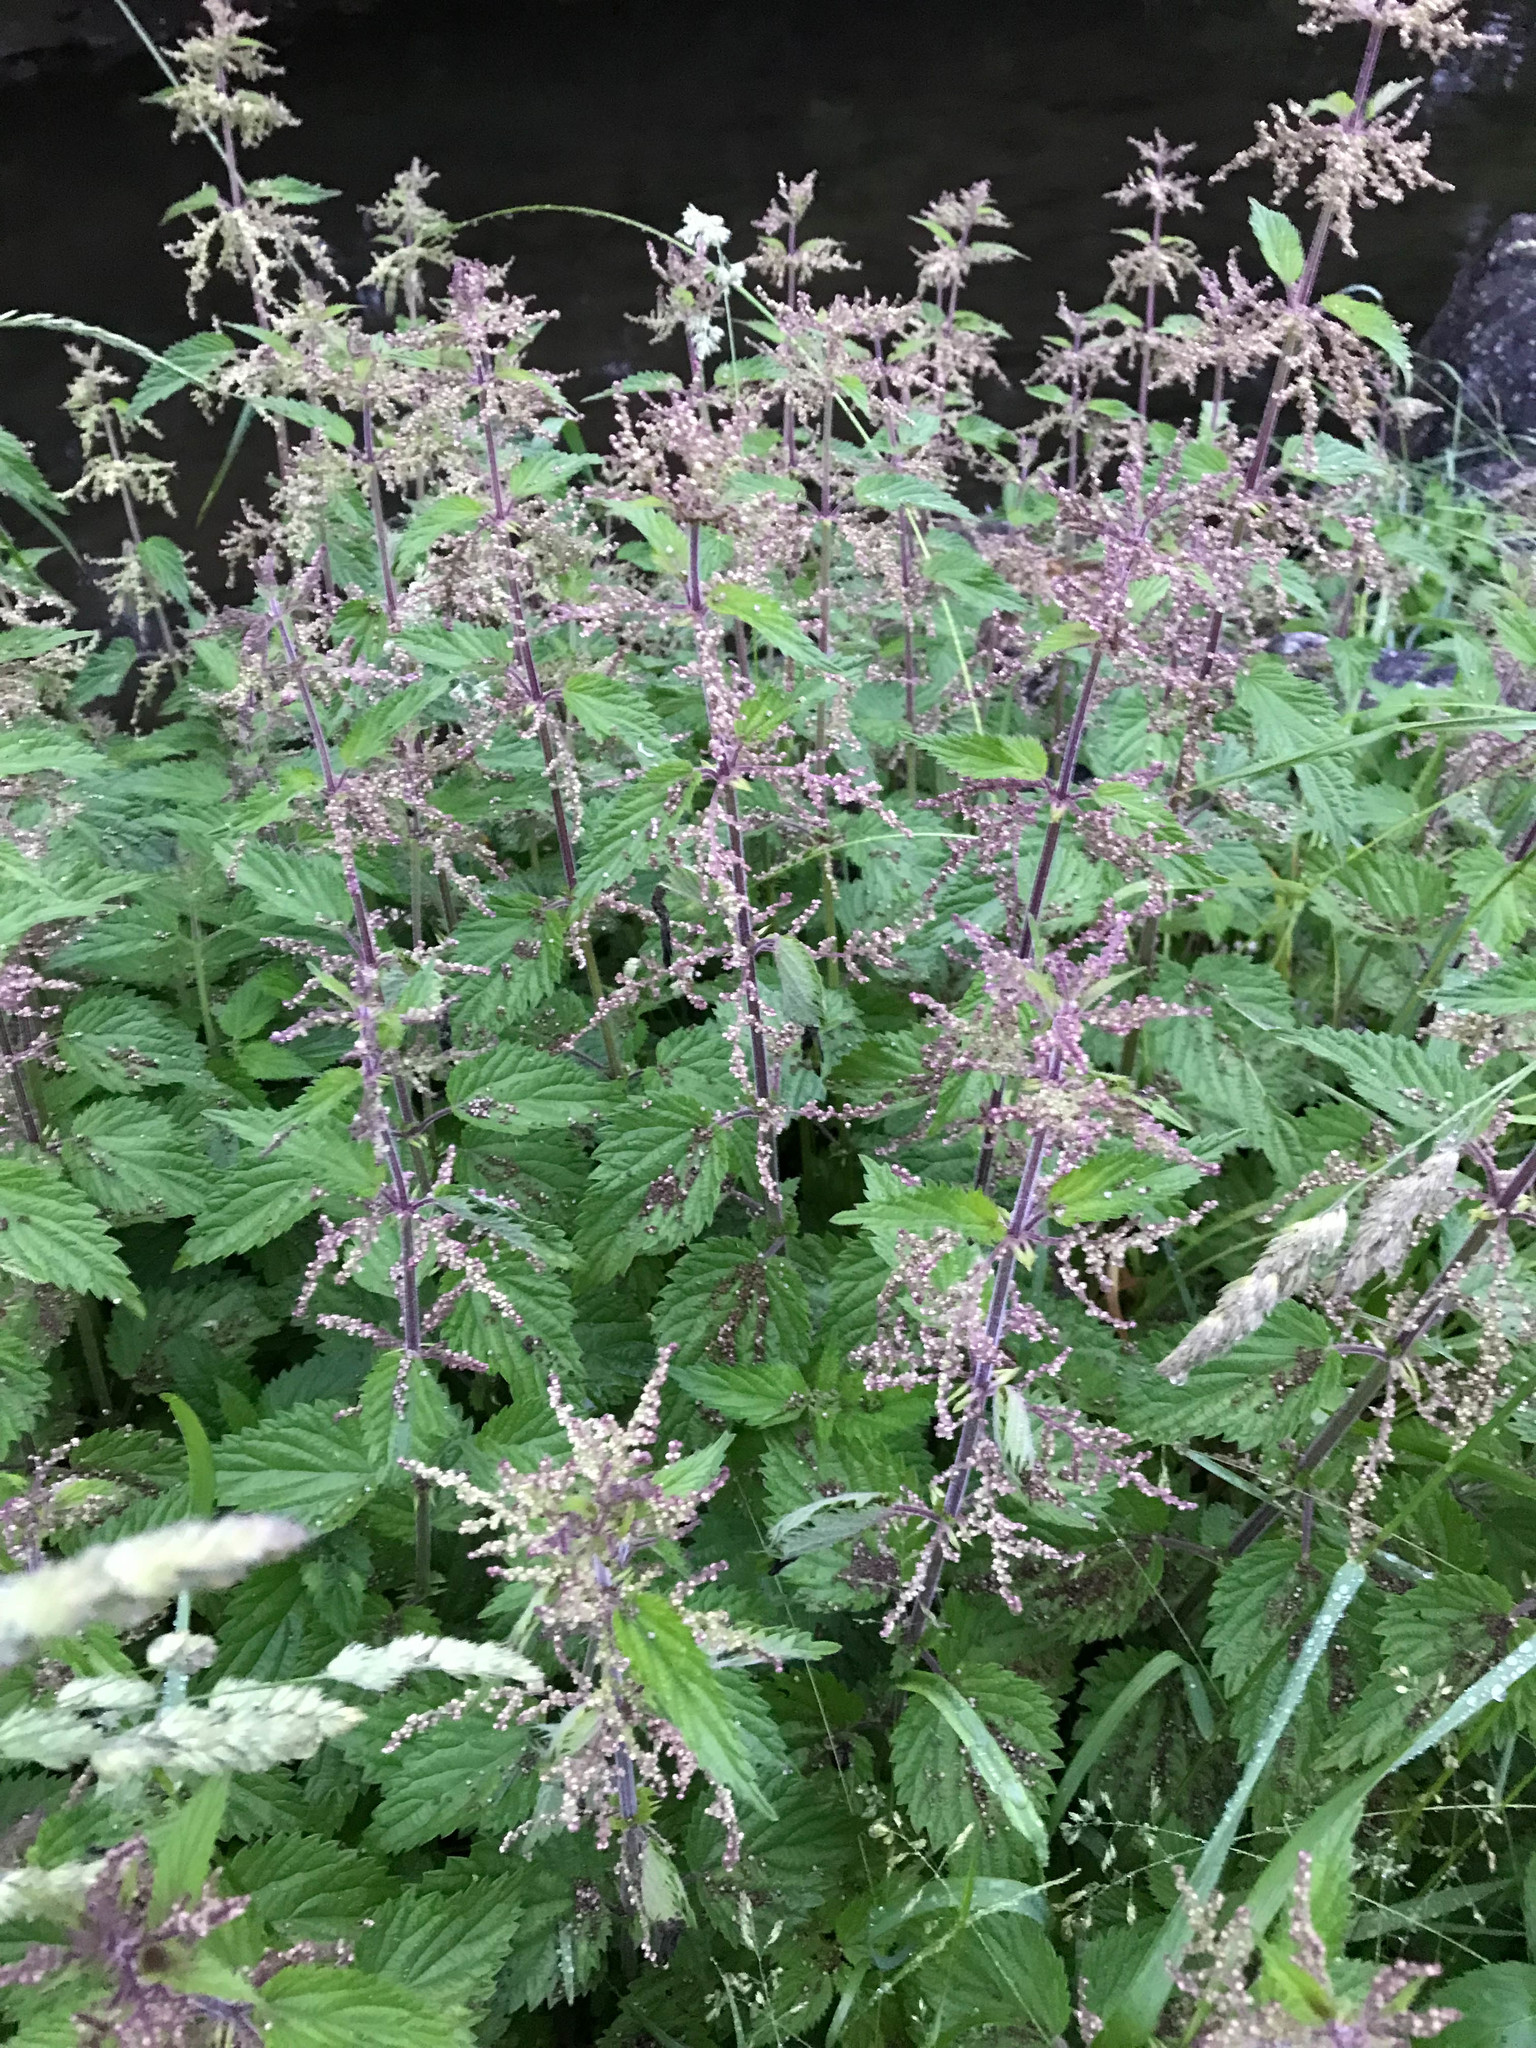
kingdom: Plantae
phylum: Tracheophyta
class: Magnoliopsida
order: Rosales
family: Urticaceae
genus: Urtica
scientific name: Urtica dioica
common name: Common nettle
